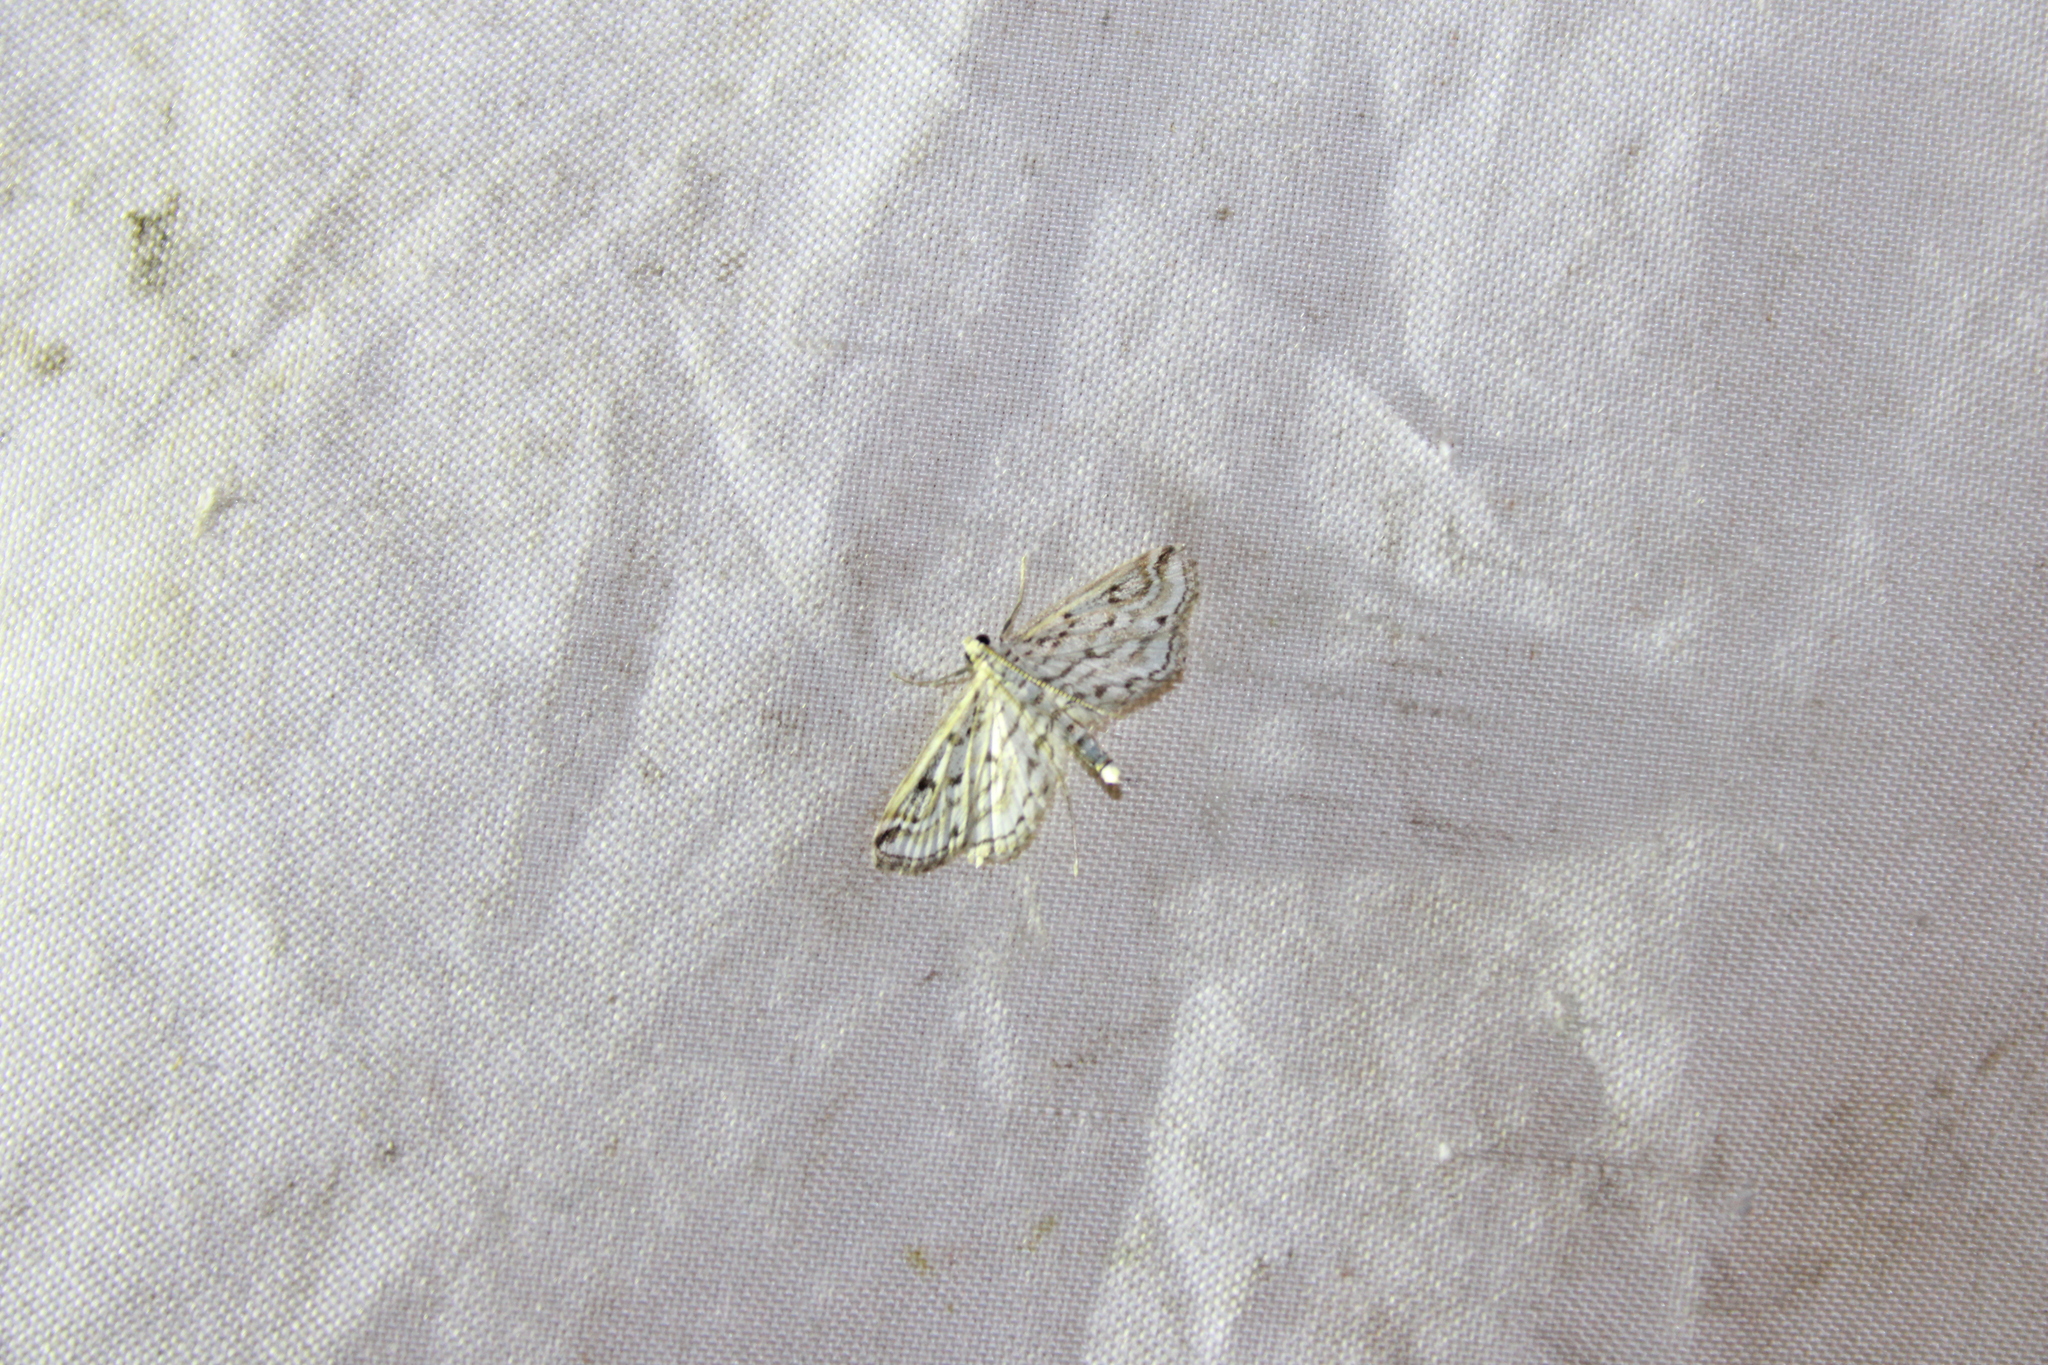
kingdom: Animalia
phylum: Arthropoda
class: Insecta
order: Lepidoptera
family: Crambidae
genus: Parapoynx
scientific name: Parapoynx allionealis
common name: Bladderwort casemaker
